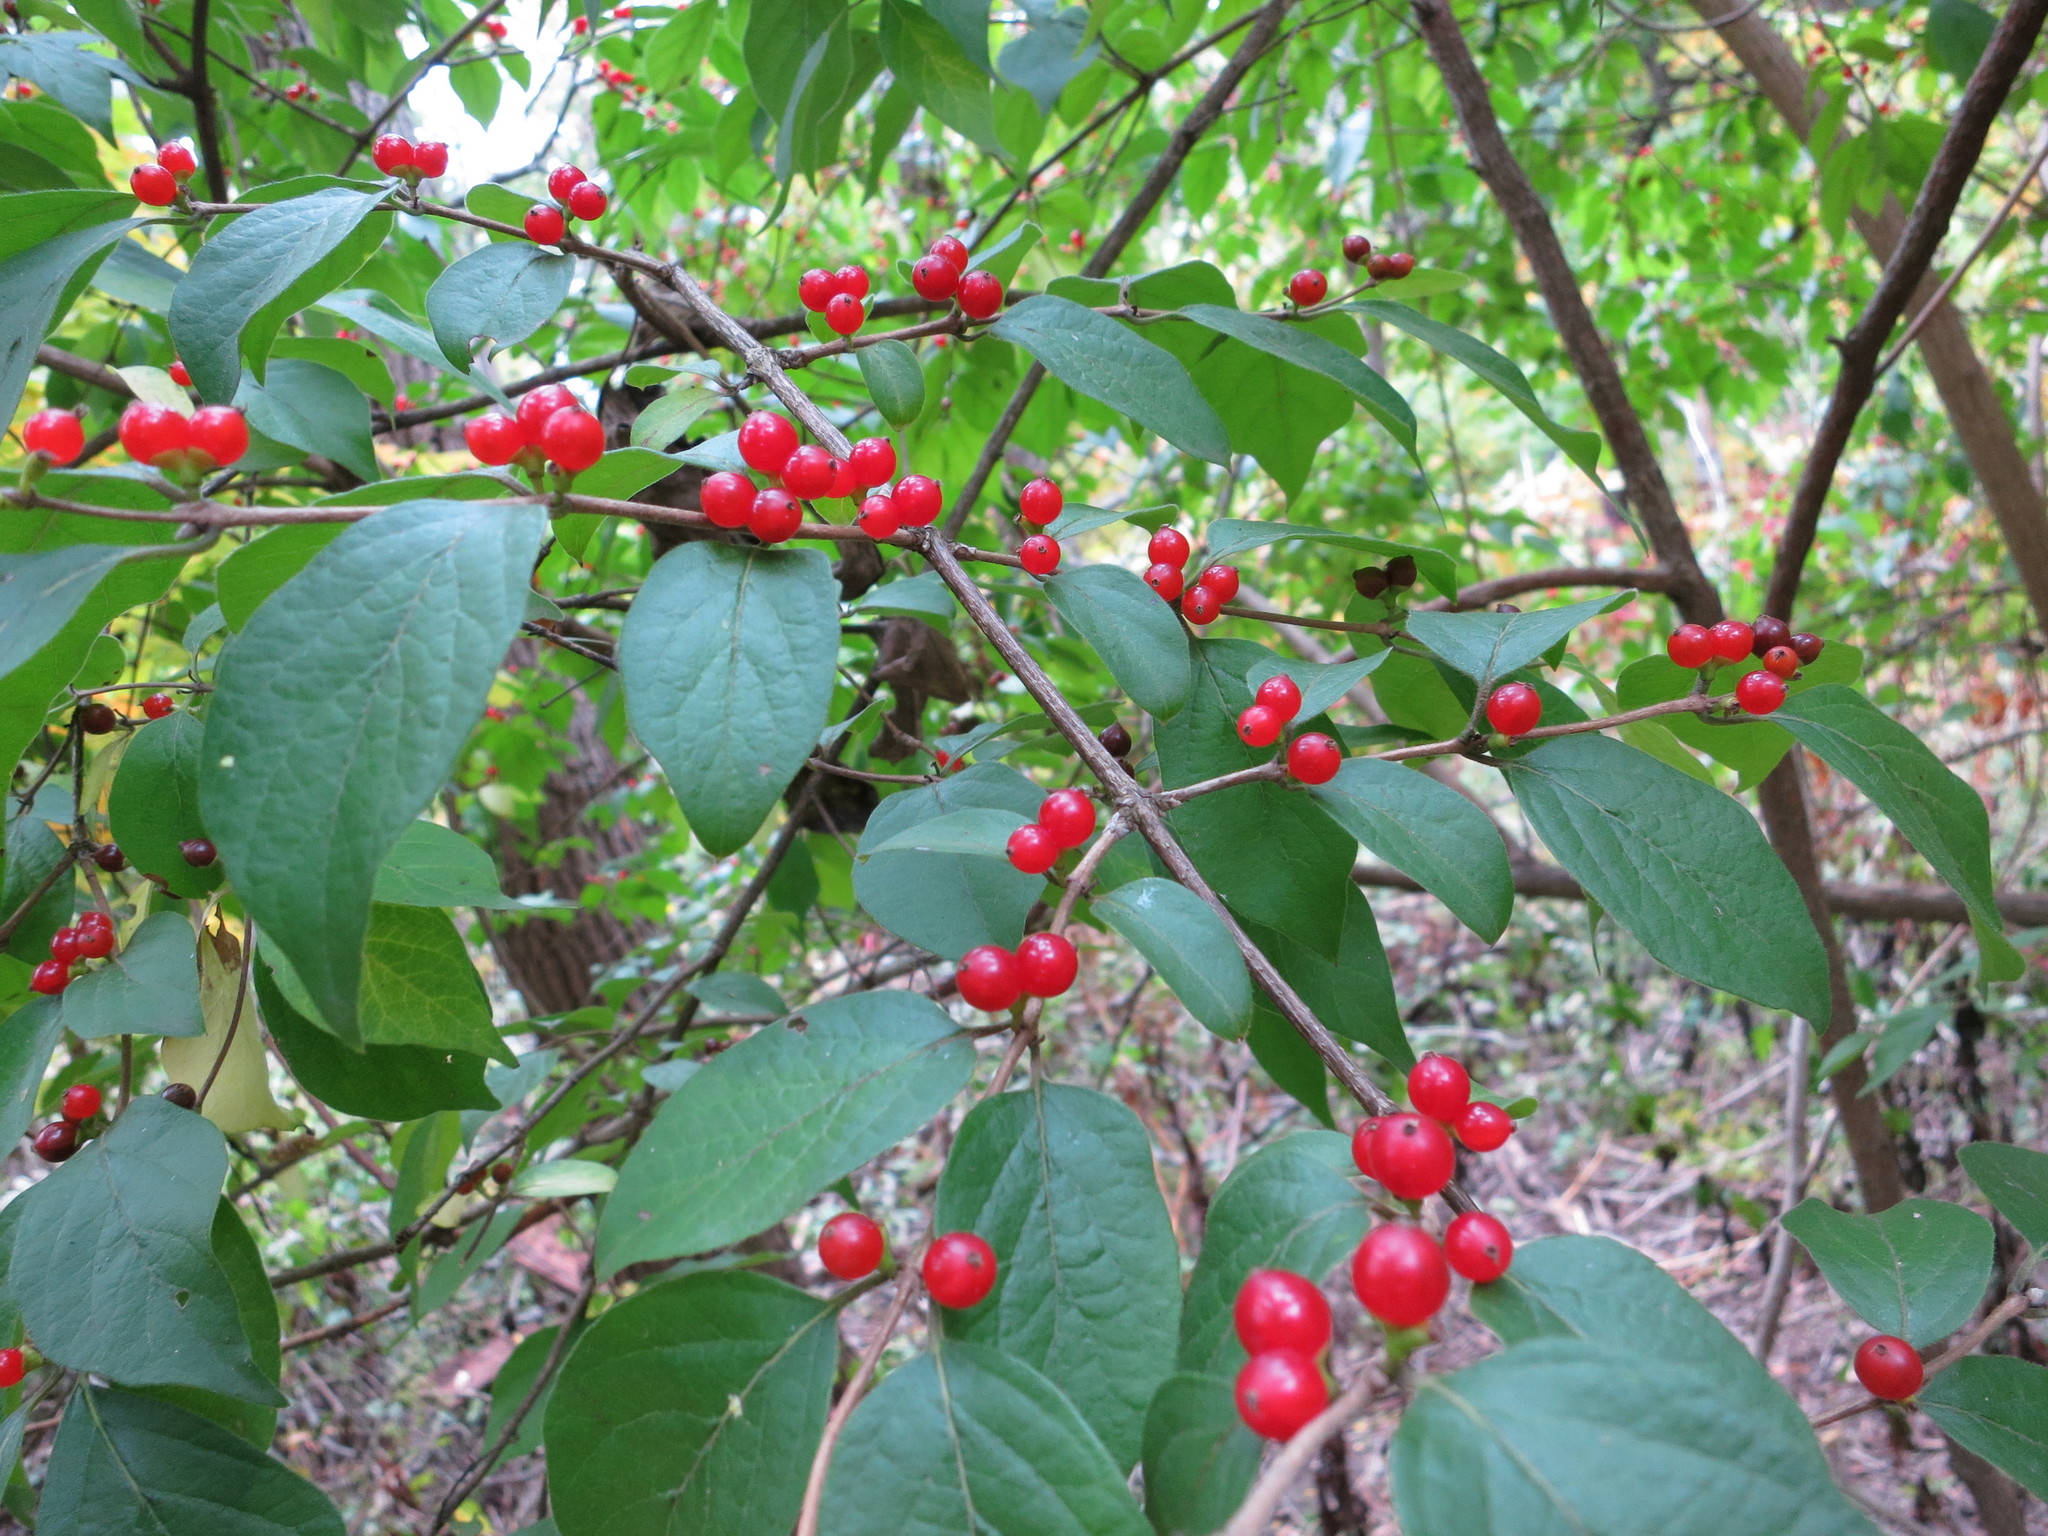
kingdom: Plantae
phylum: Tracheophyta
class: Magnoliopsida
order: Dipsacales
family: Caprifoliaceae
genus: Lonicera
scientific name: Lonicera maackii
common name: Amur honeysuckle
